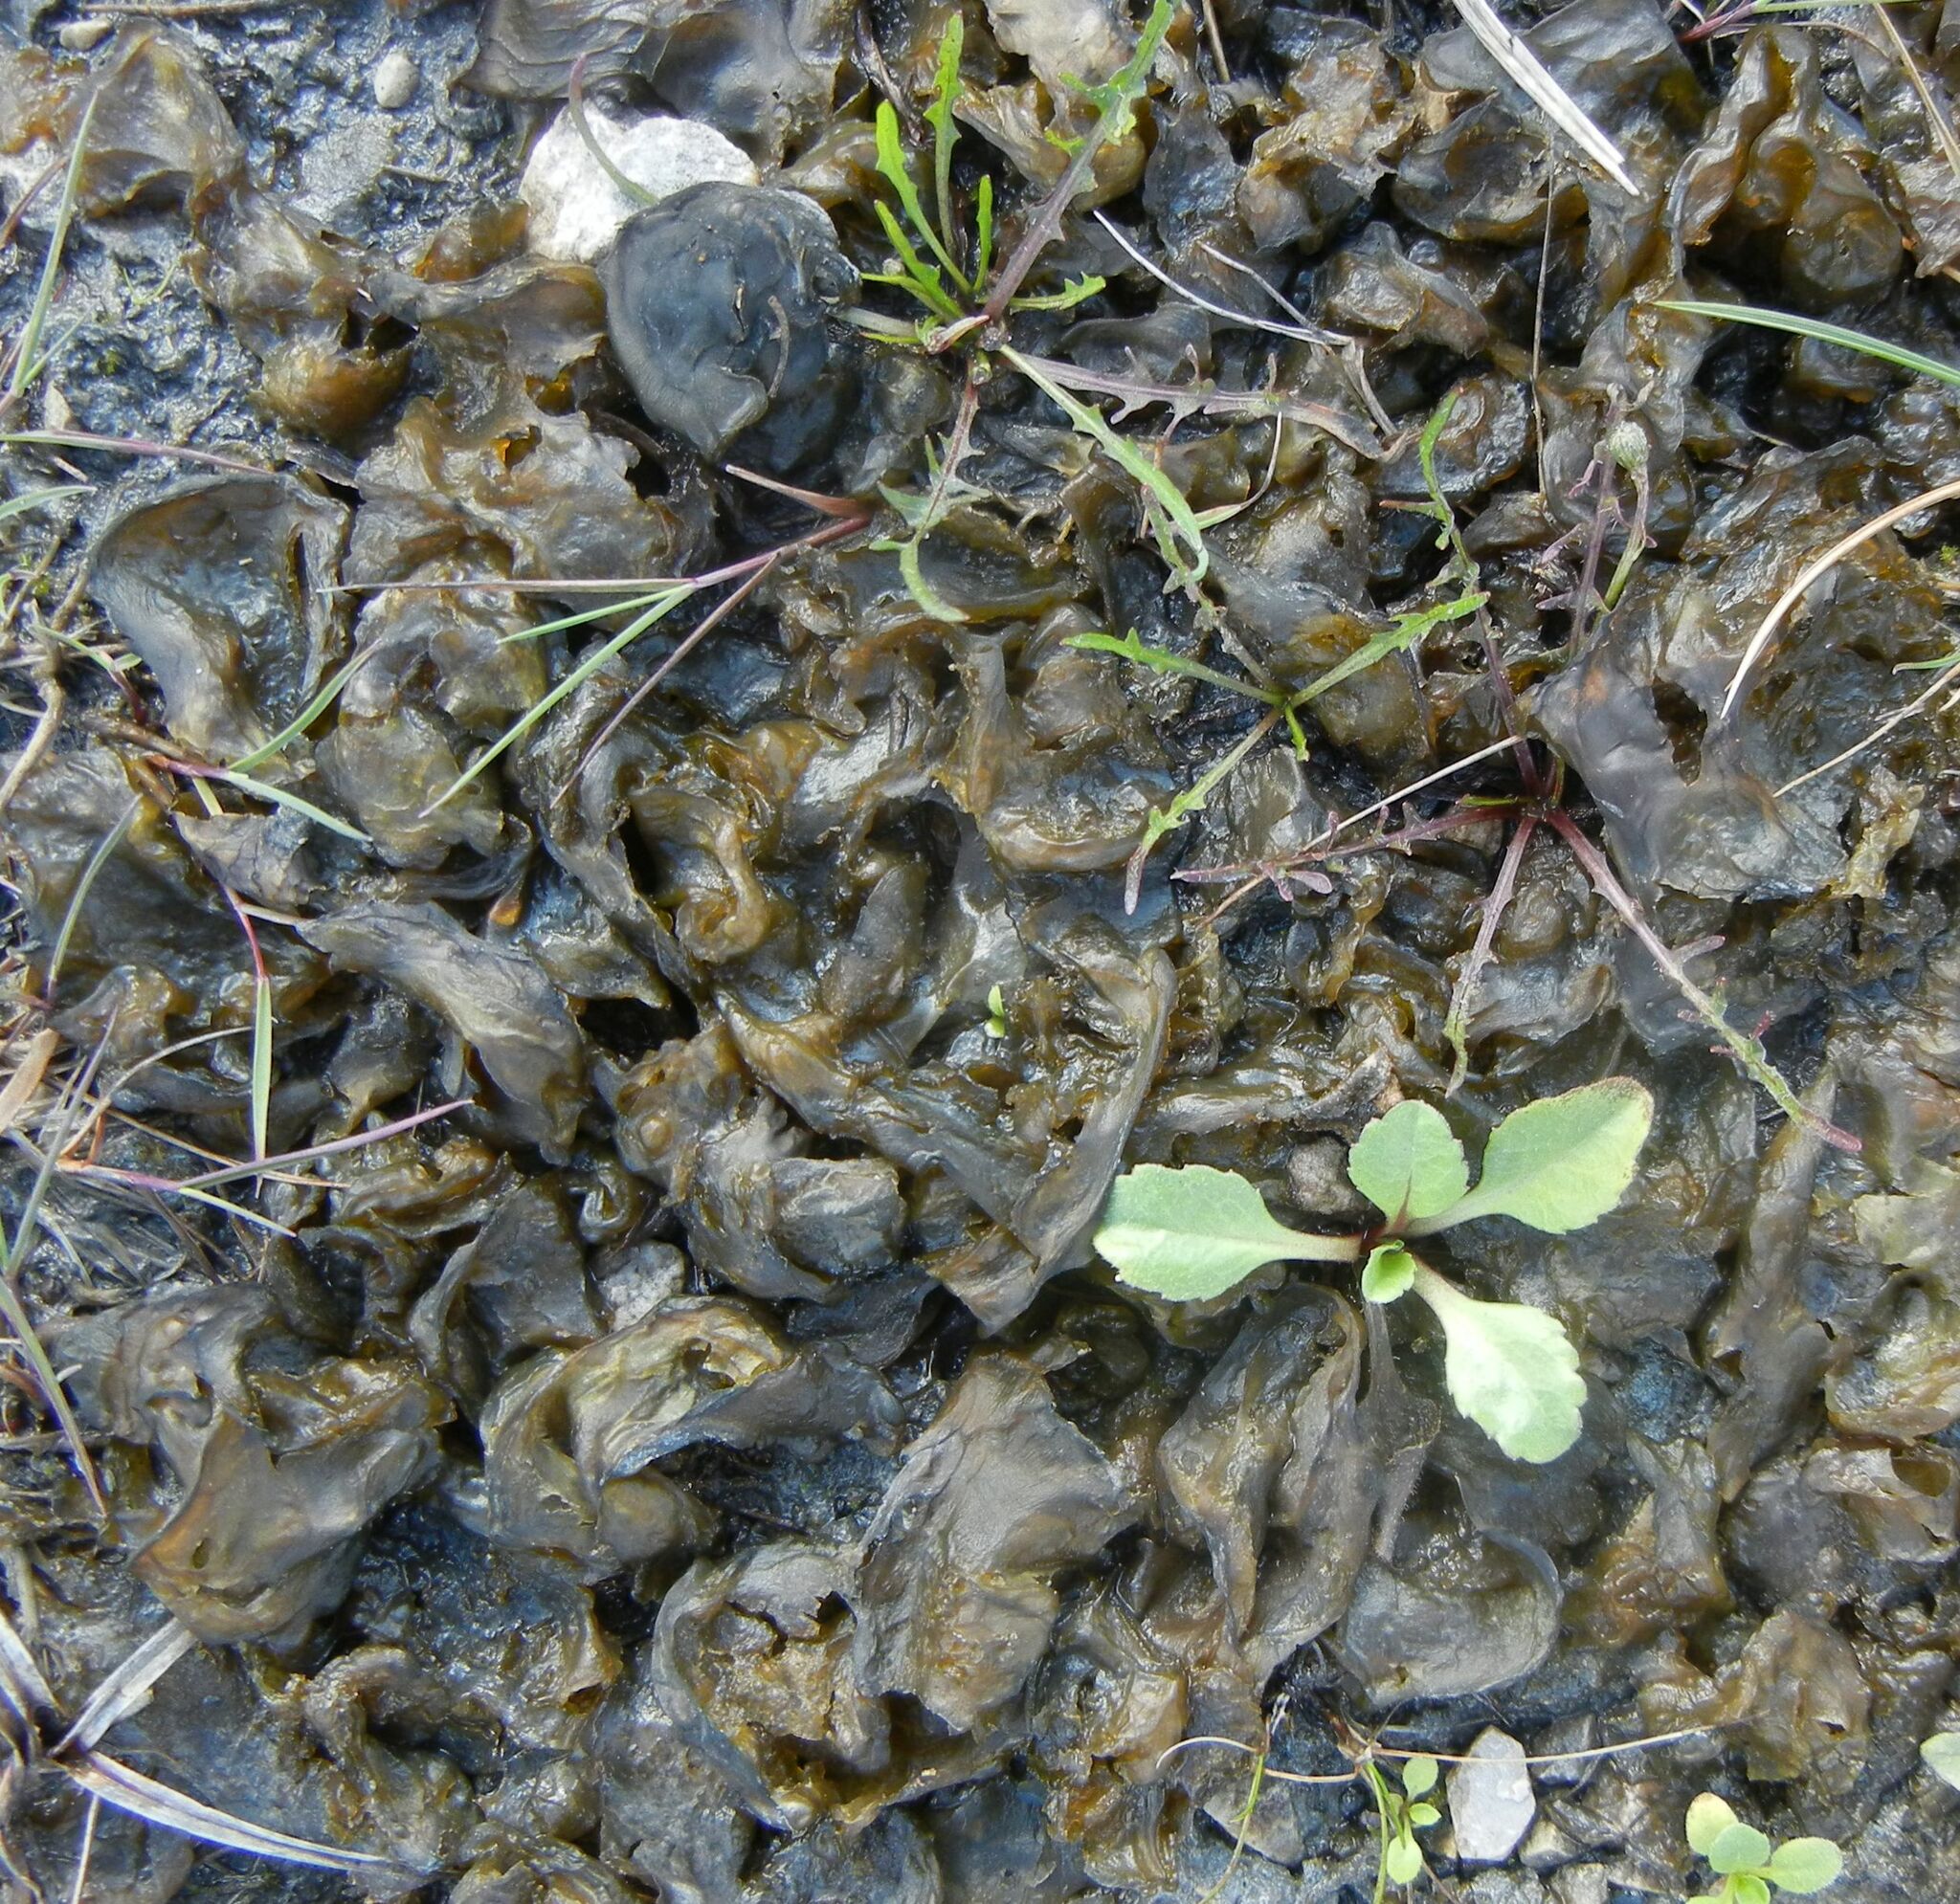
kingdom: Bacteria
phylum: Cyanobacteria
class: Cyanobacteriia
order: Cyanobacteriales
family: Nostocaceae
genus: Nostoc
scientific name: Nostoc commune
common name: Star jelly
